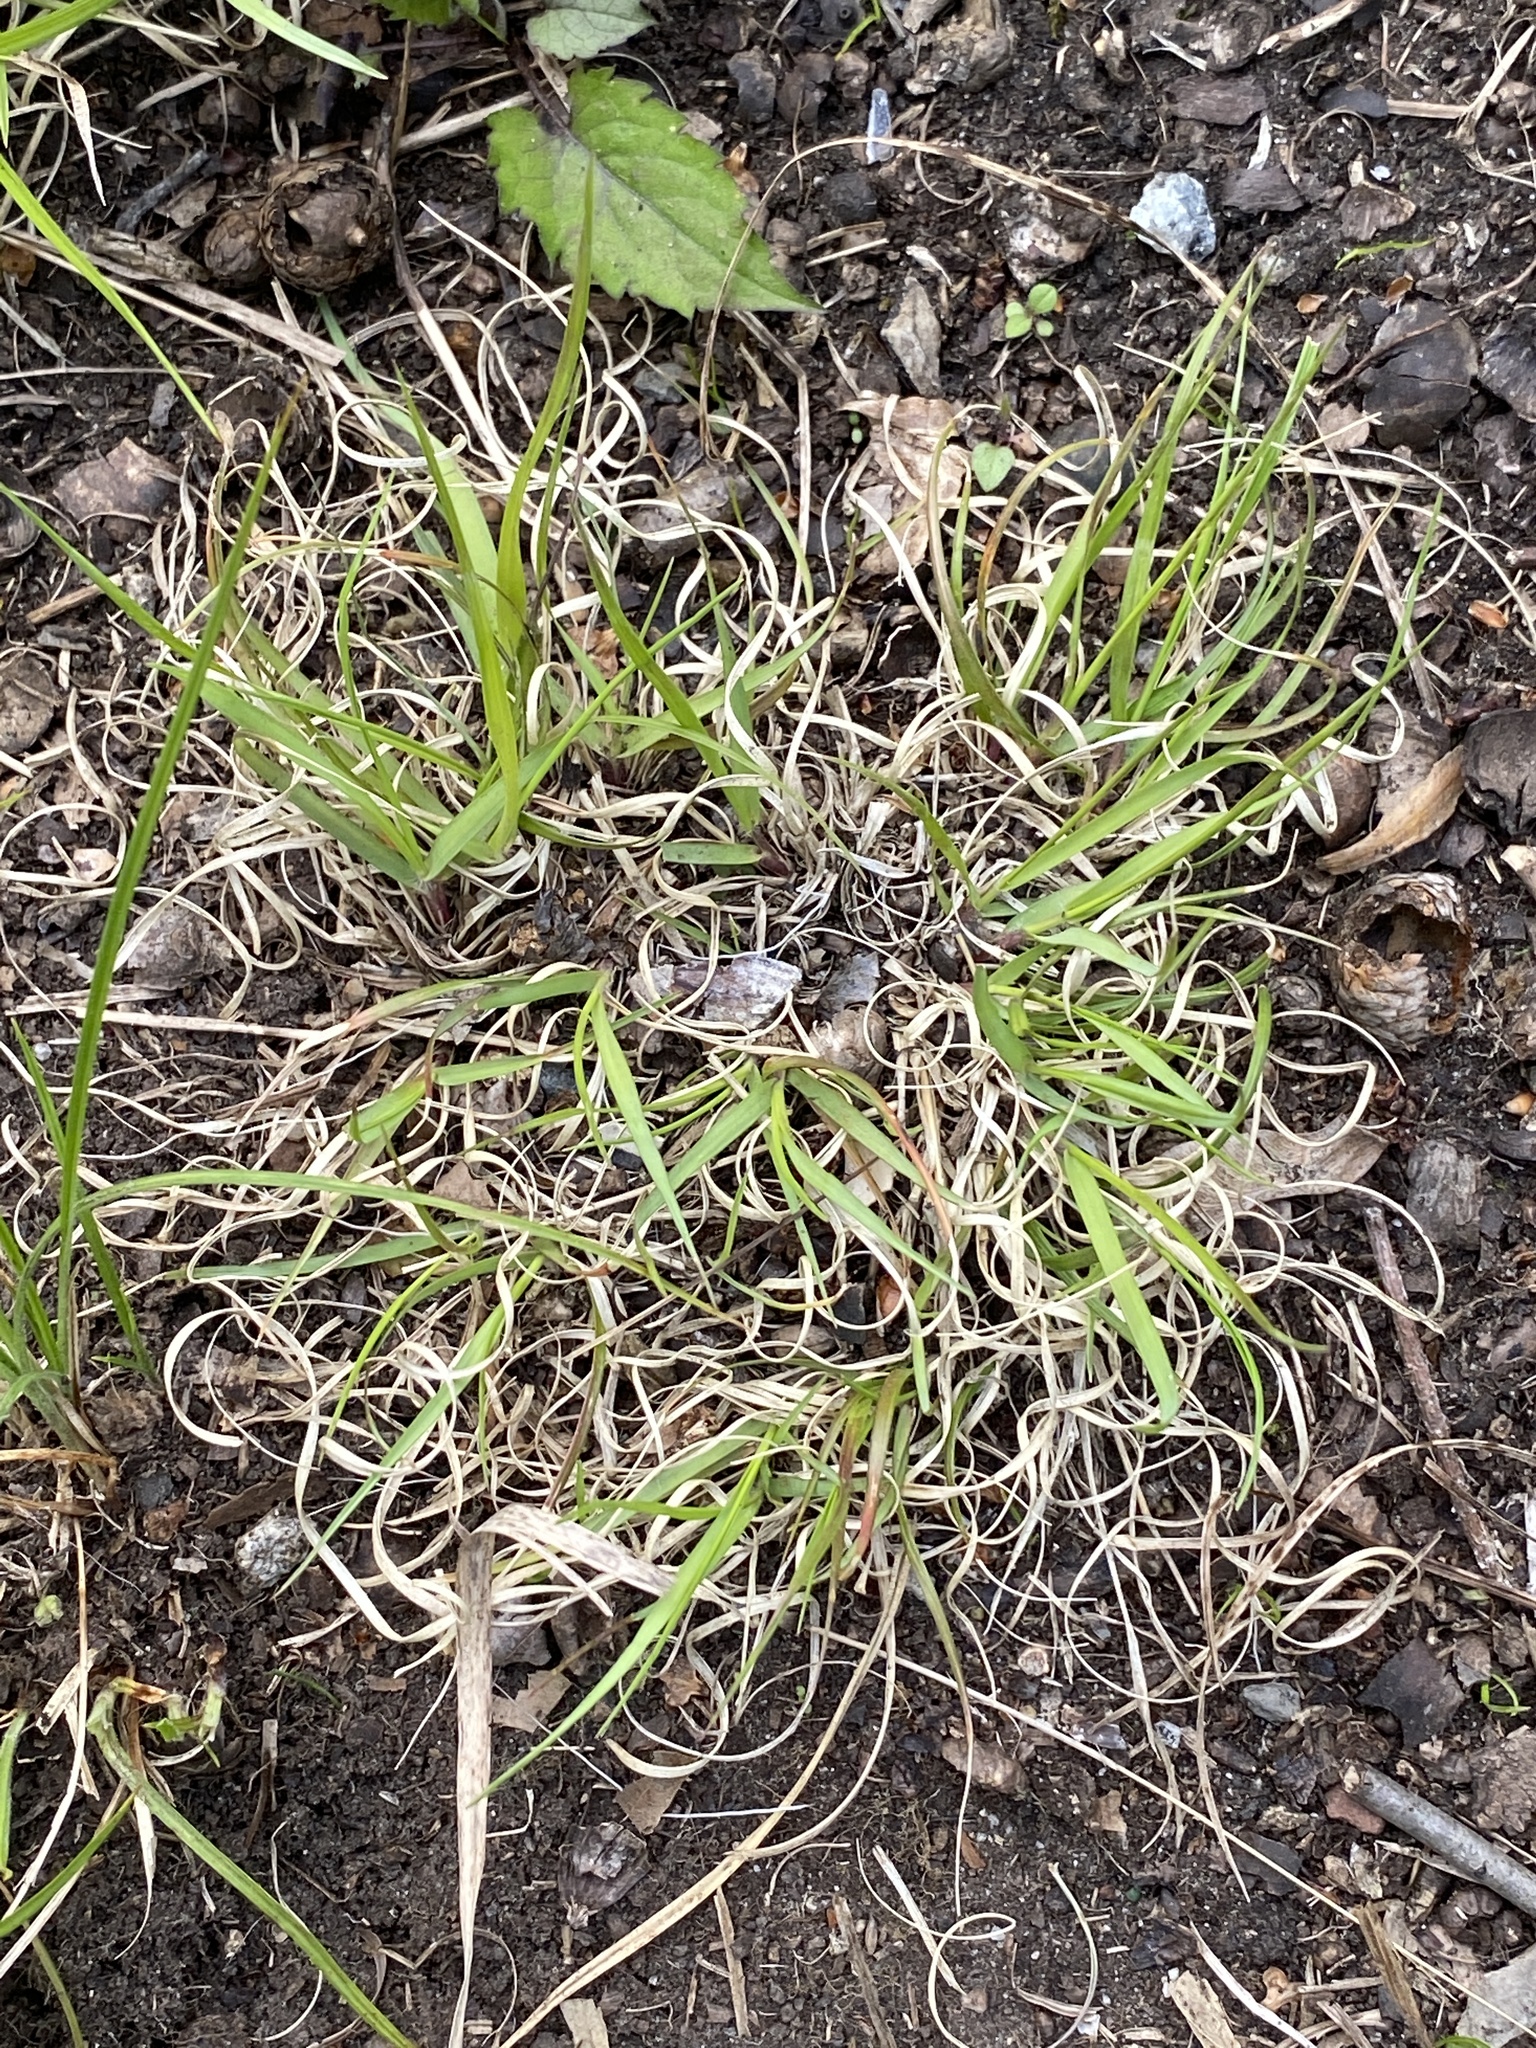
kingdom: Plantae
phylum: Tracheophyta
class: Liliopsida
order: Poales
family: Poaceae
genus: Danthonia
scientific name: Danthonia spicata
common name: Common wild oatgrass
